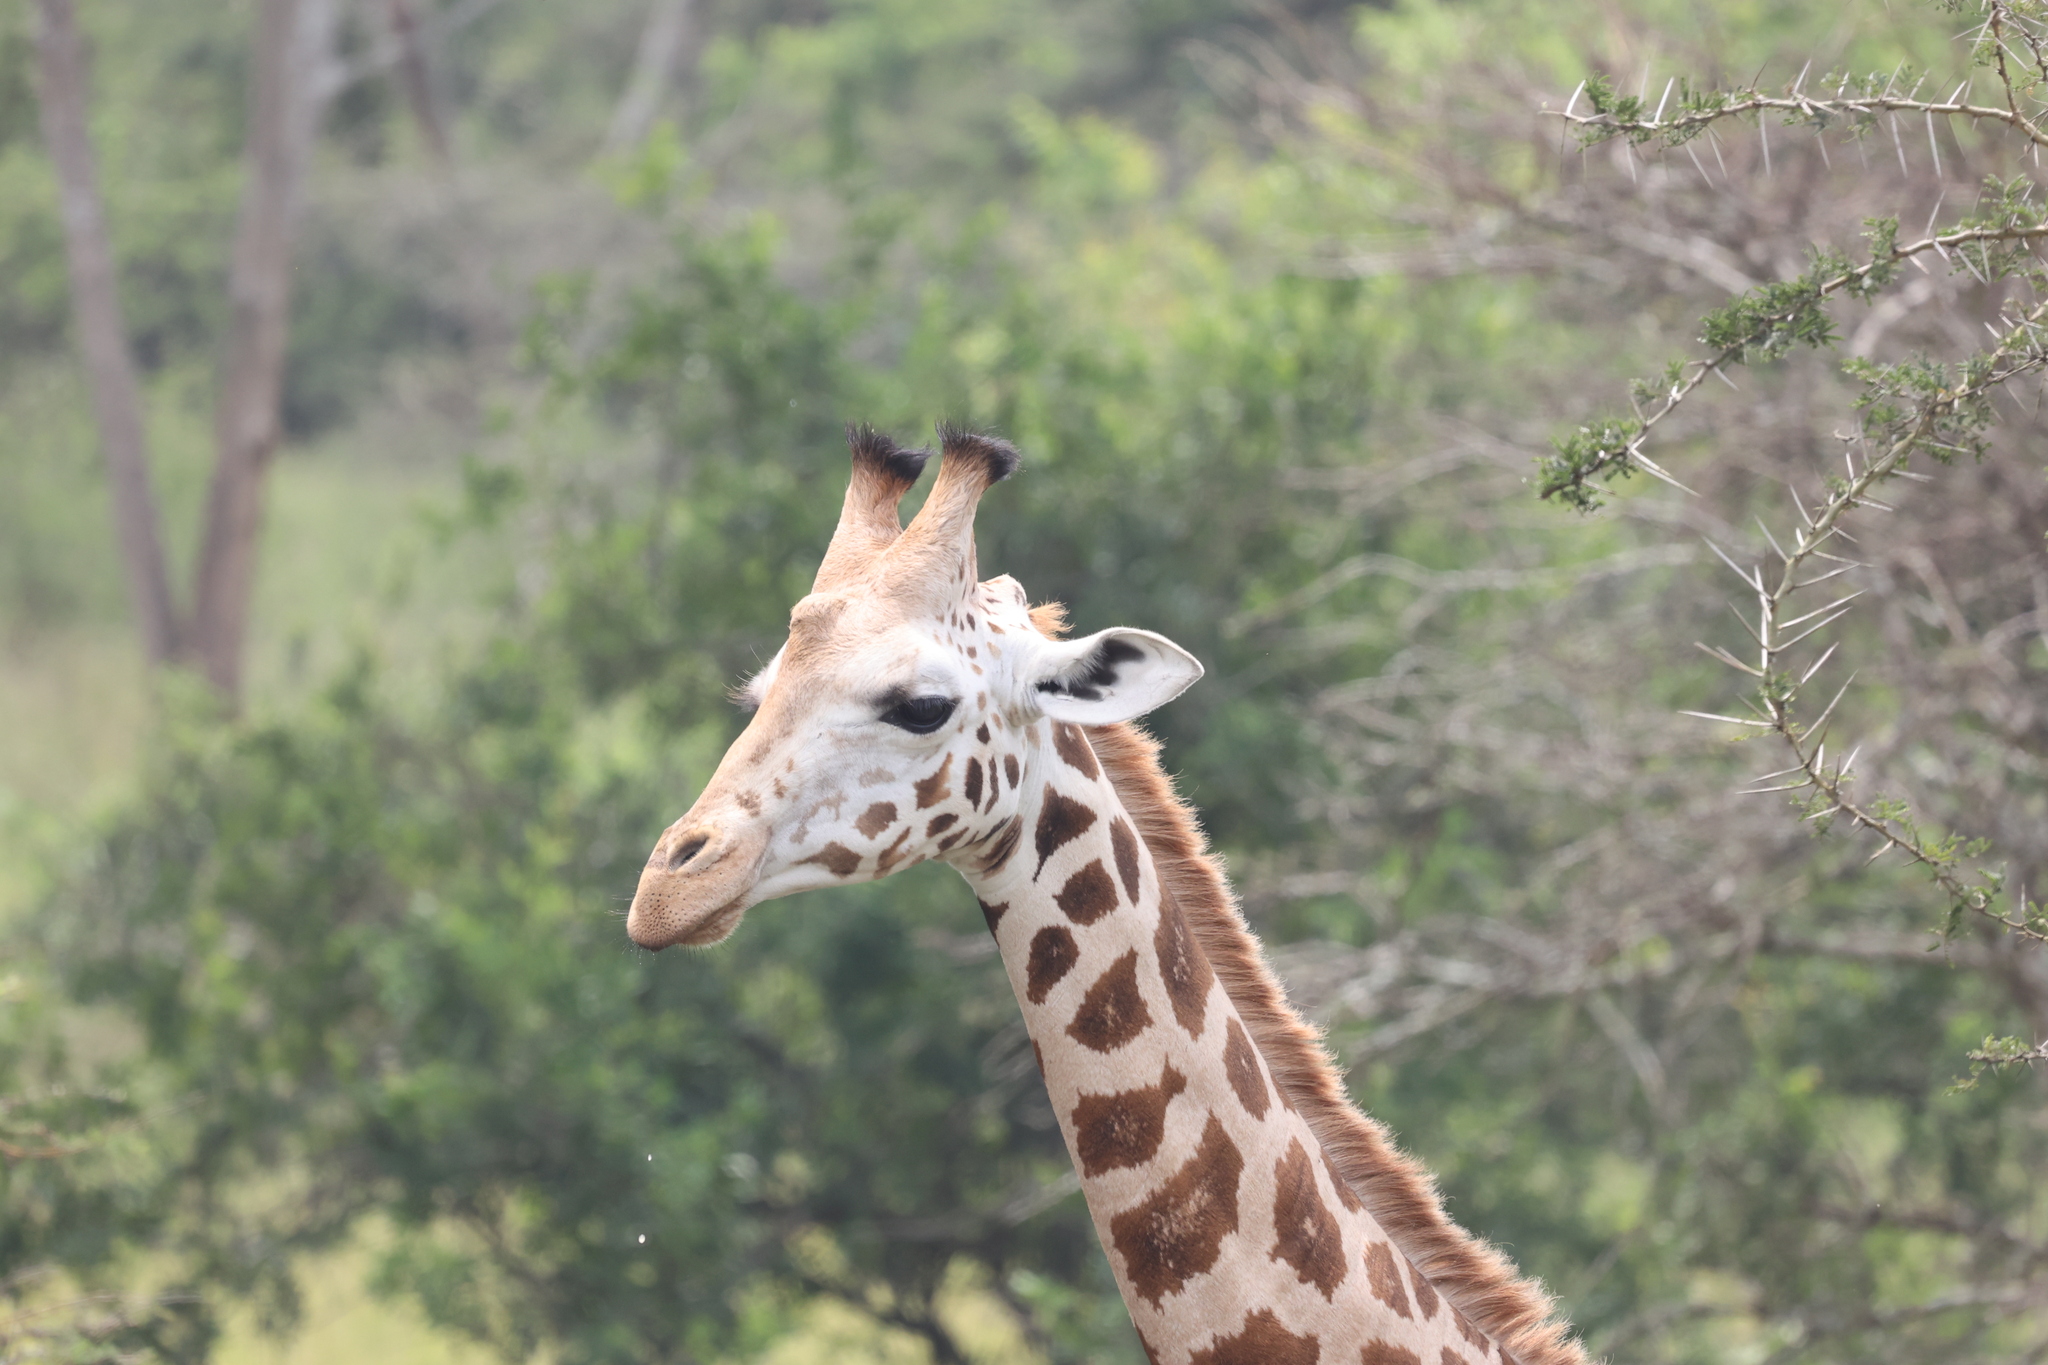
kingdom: Animalia
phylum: Chordata
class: Mammalia
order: Artiodactyla
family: Giraffidae
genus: Giraffa
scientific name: Giraffa camelopardalis
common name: Giraffe
